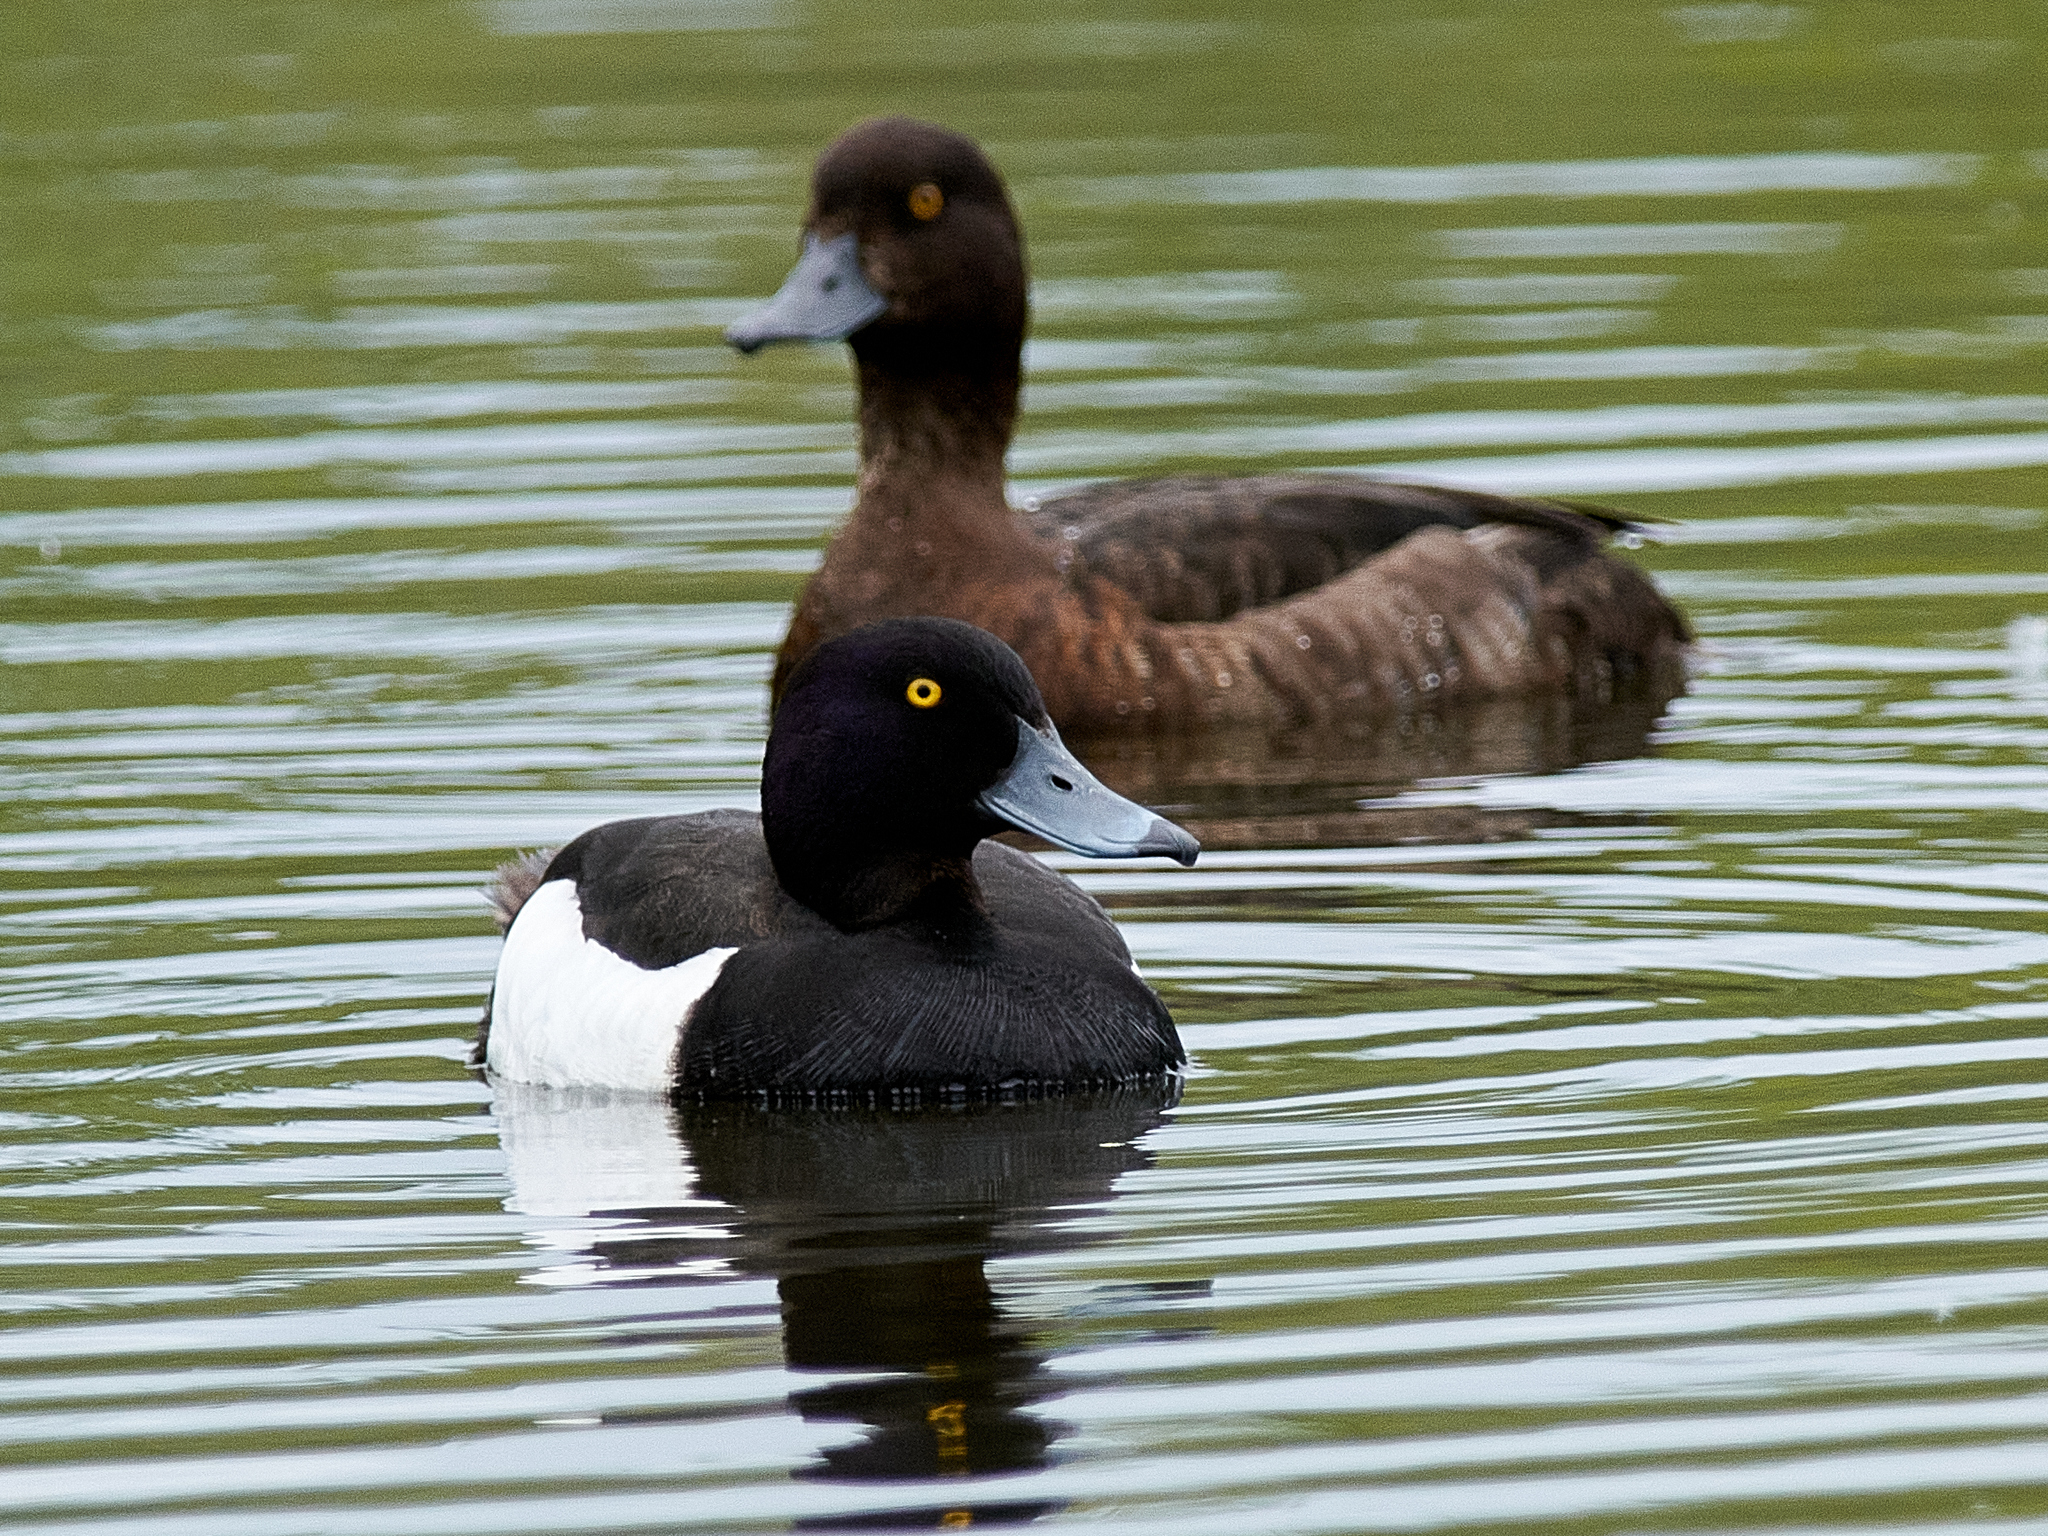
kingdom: Animalia
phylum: Chordata
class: Aves
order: Anseriformes
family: Anatidae
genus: Aythya
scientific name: Aythya fuligula
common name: Tufted duck
